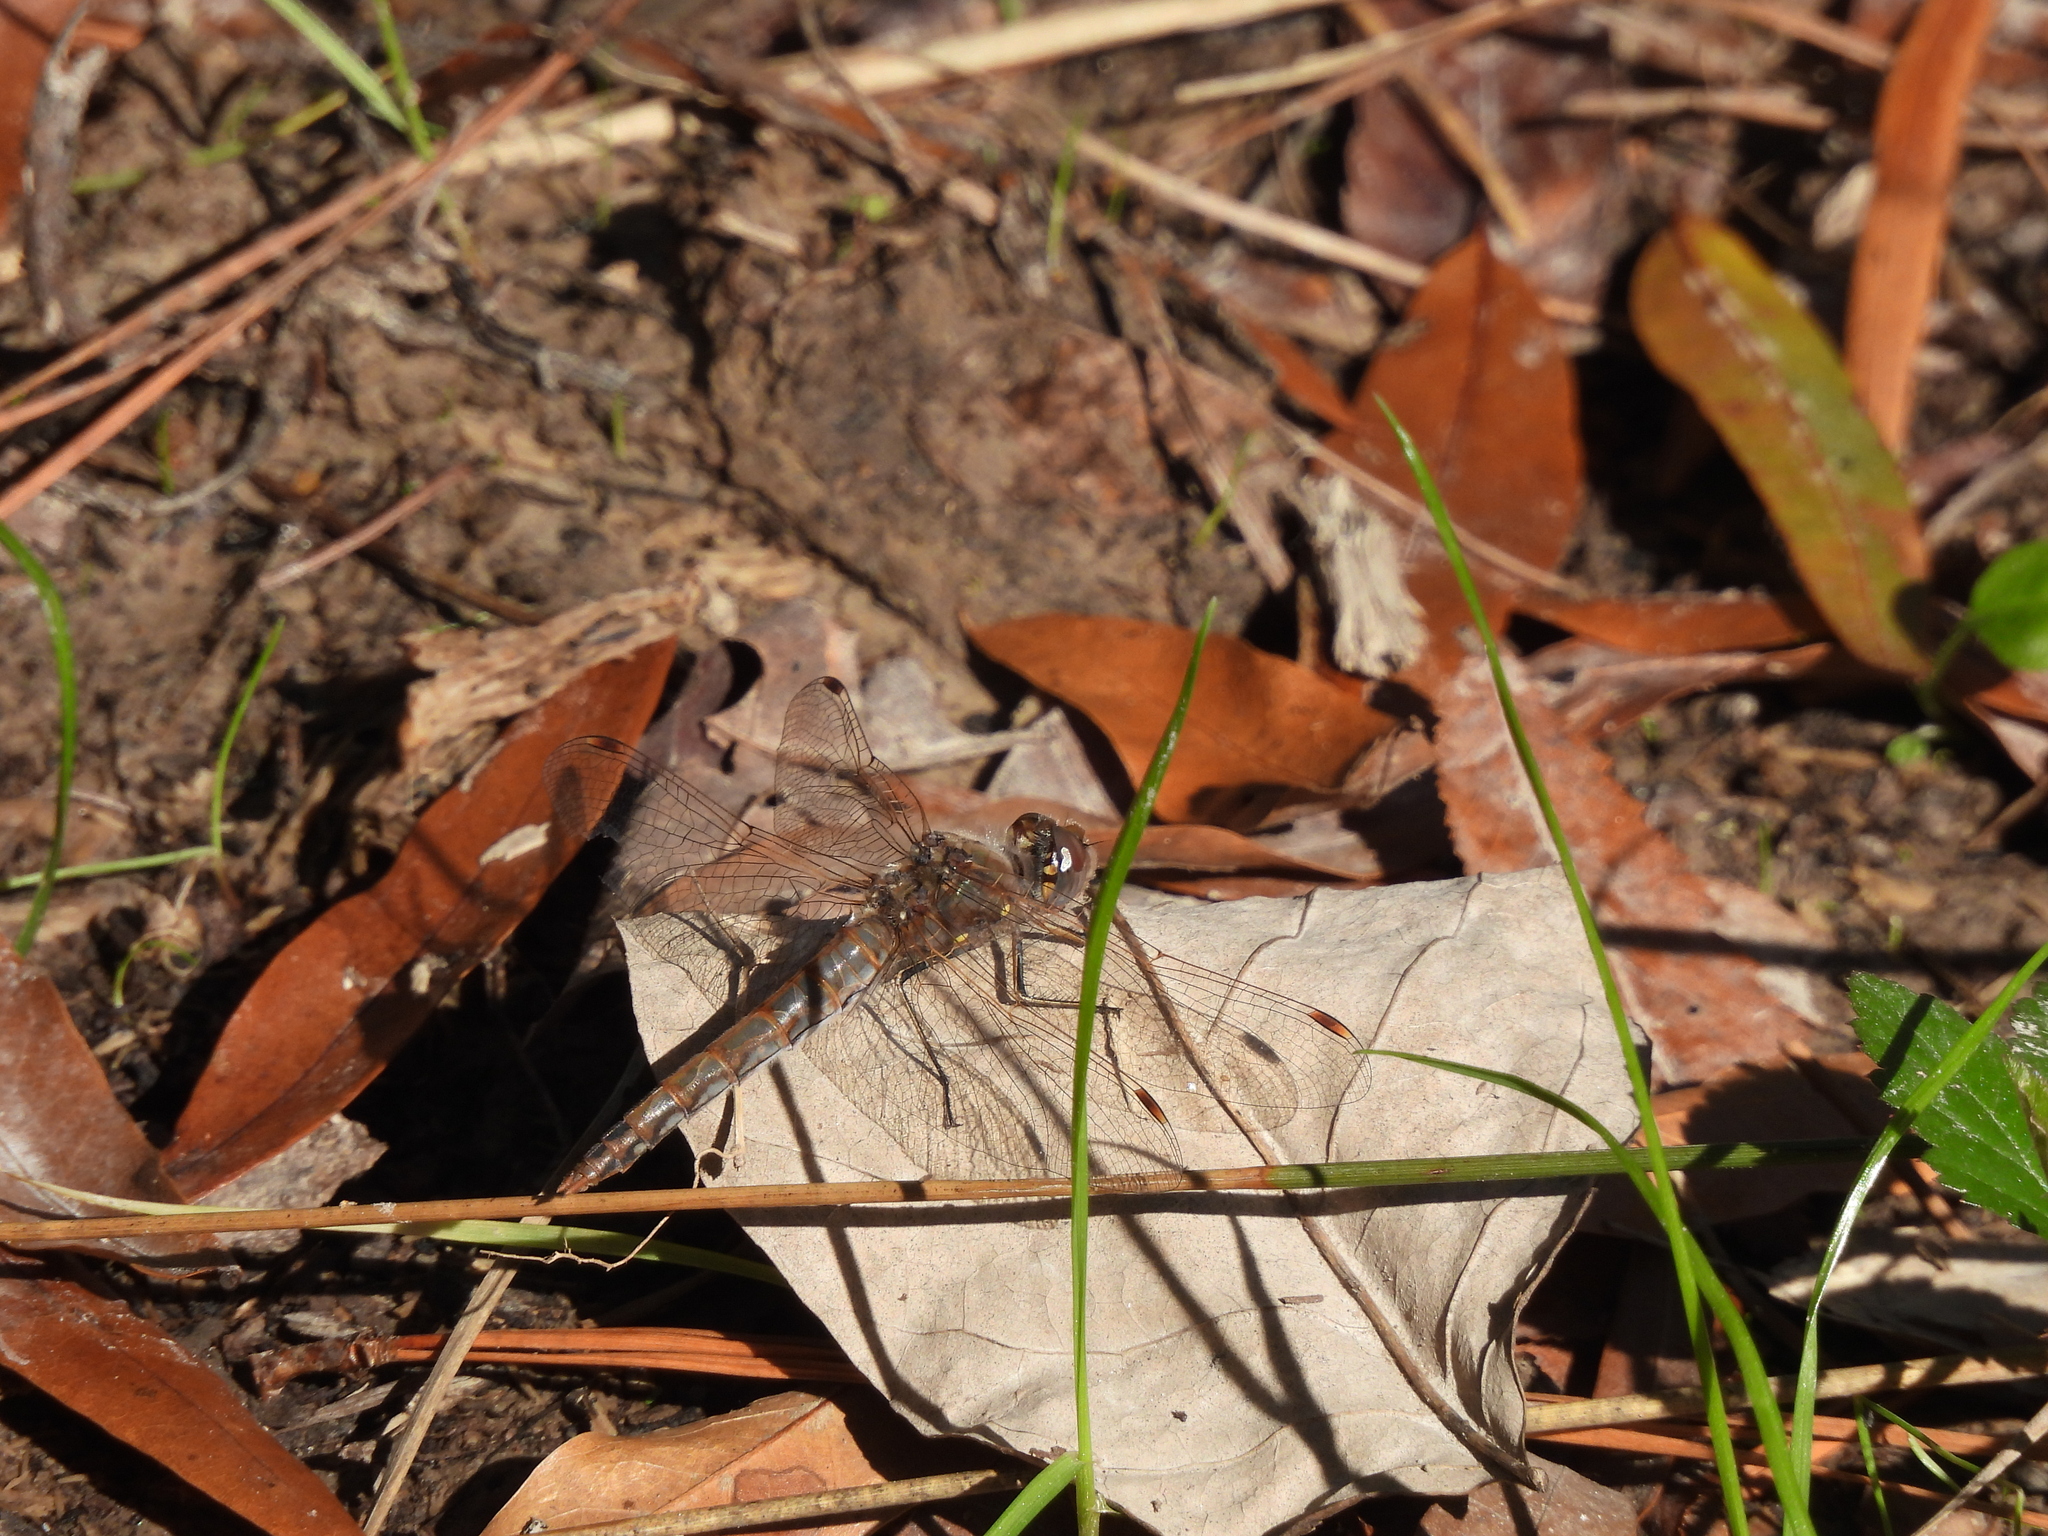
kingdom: Animalia
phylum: Arthropoda
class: Insecta
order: Odonata
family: Libellulidae
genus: Sympetrum
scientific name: Sympetrum corruptum
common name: Variegated meadowhawk
